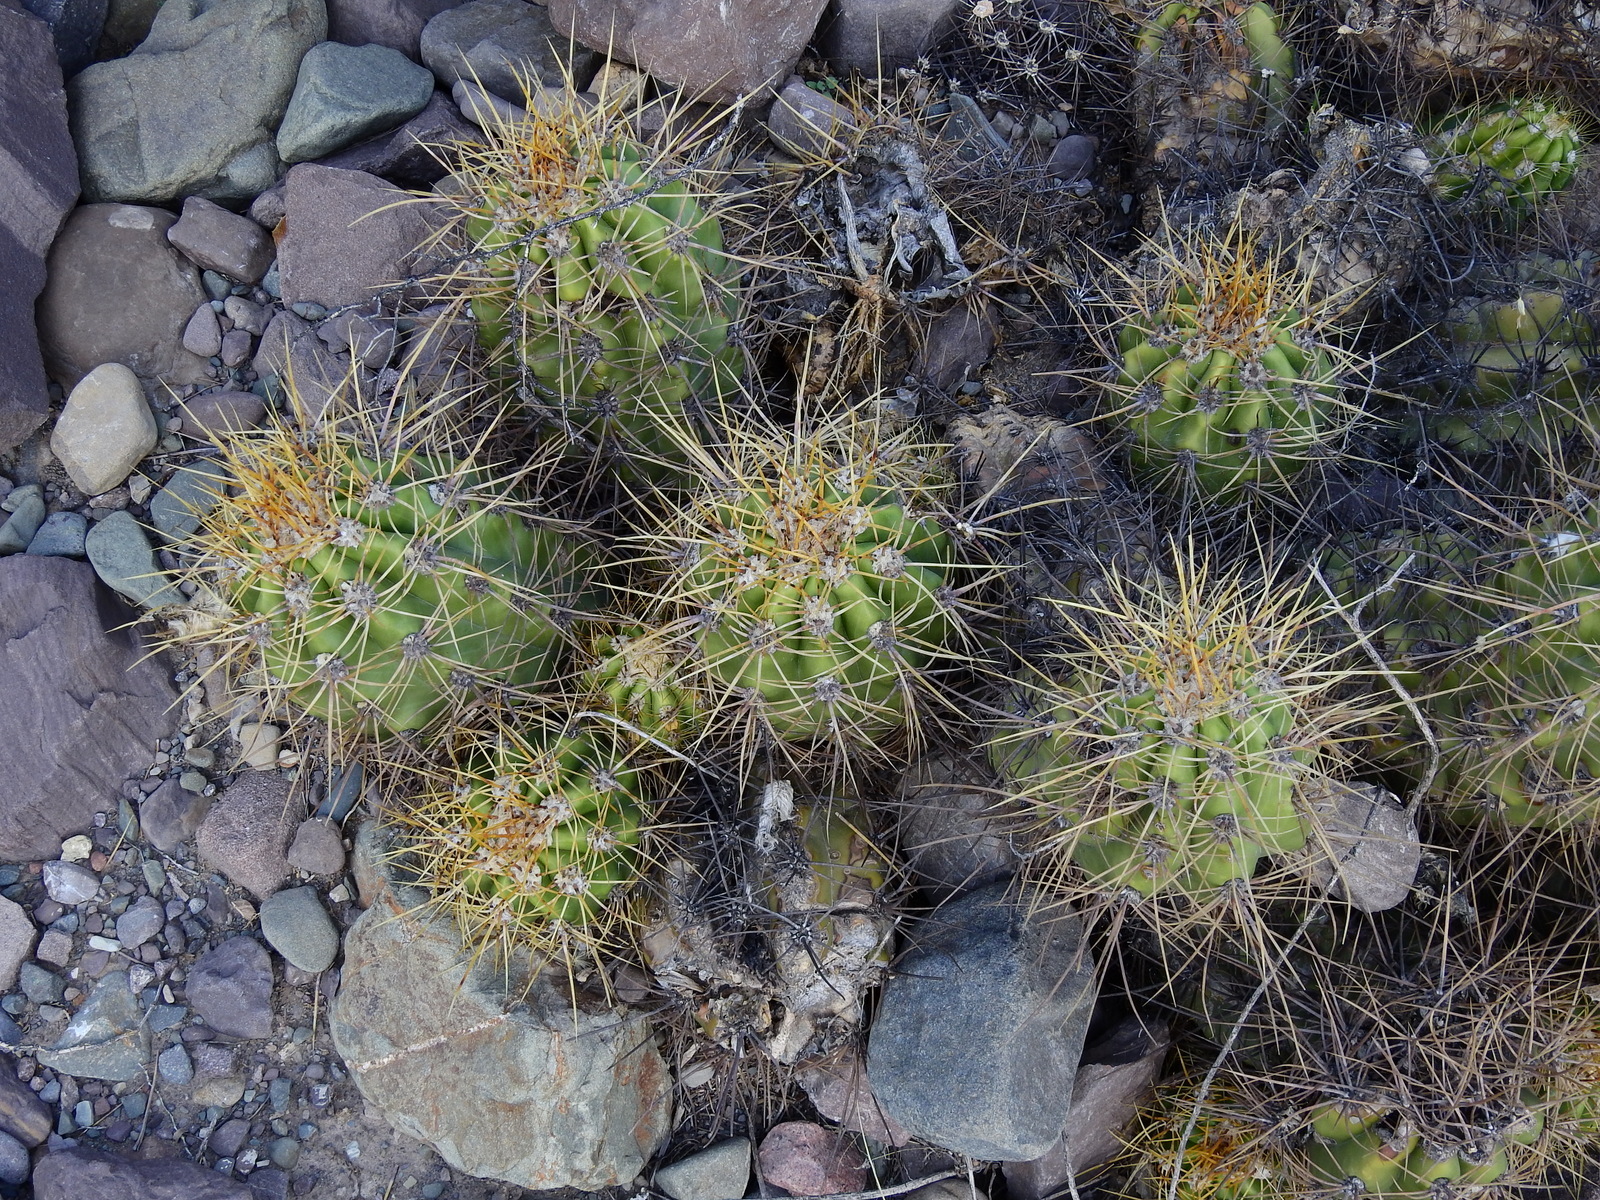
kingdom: Plantae
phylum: Tracheophyta
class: Magnoliopsida
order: Caryophyllales
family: Cactaceae
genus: Soehrensia
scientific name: Soehrensia candicans
